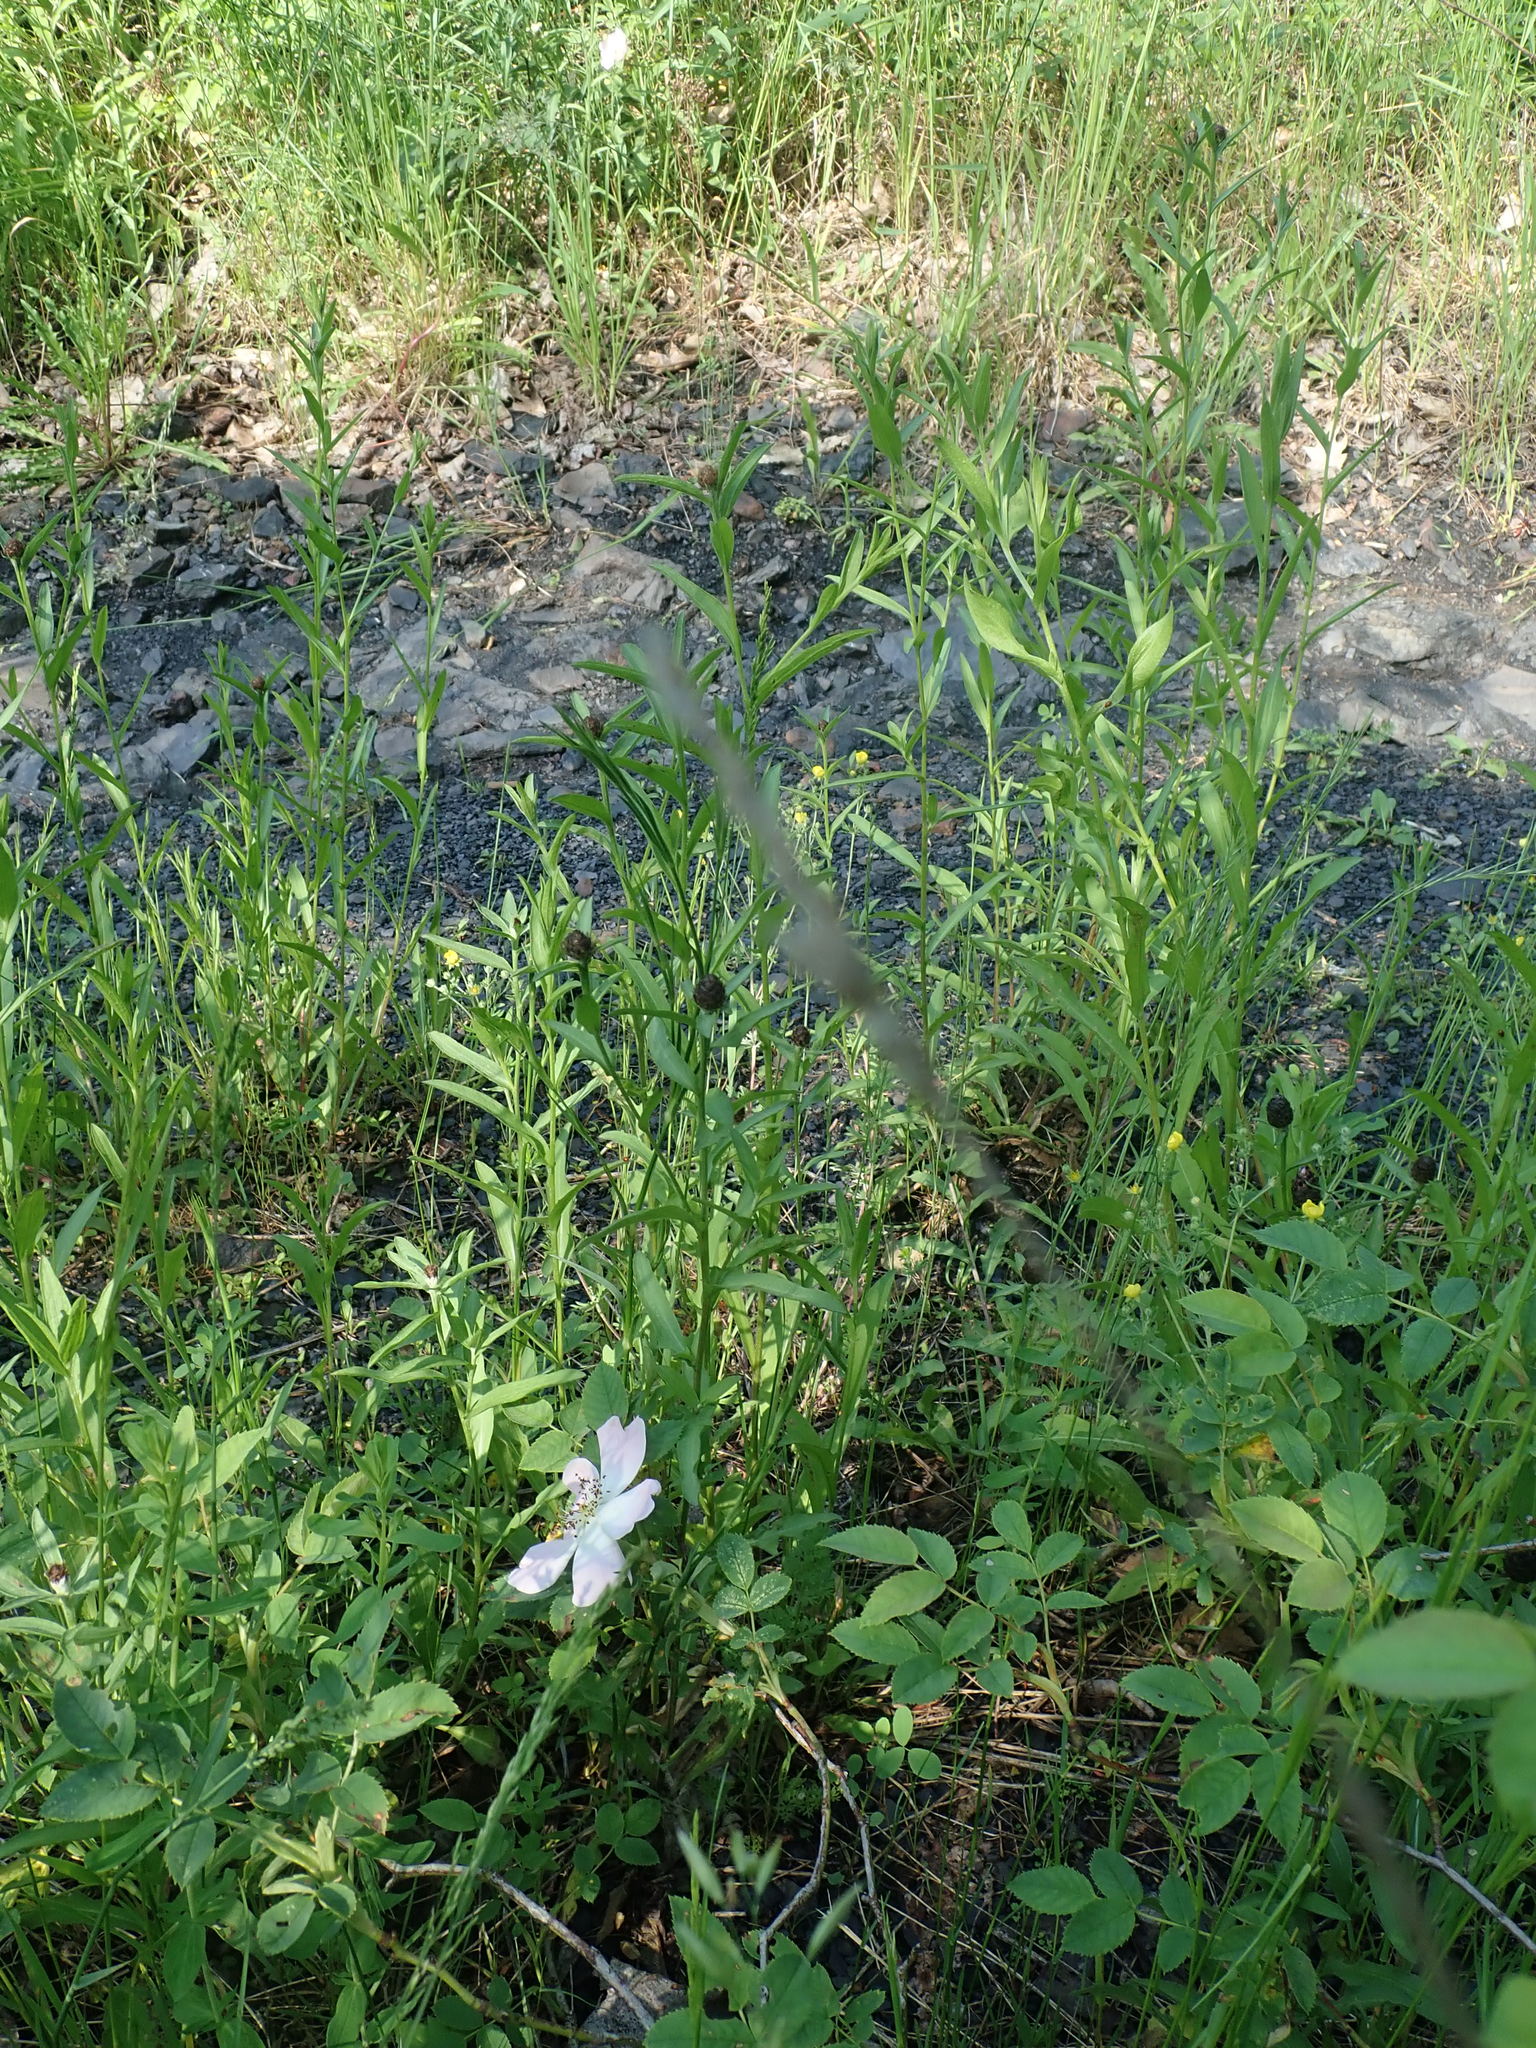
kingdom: Plantae
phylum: Tracheophyta
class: Magnoliopsida
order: Asterales
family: Asteraceae
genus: Centaurea
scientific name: Centaurea
